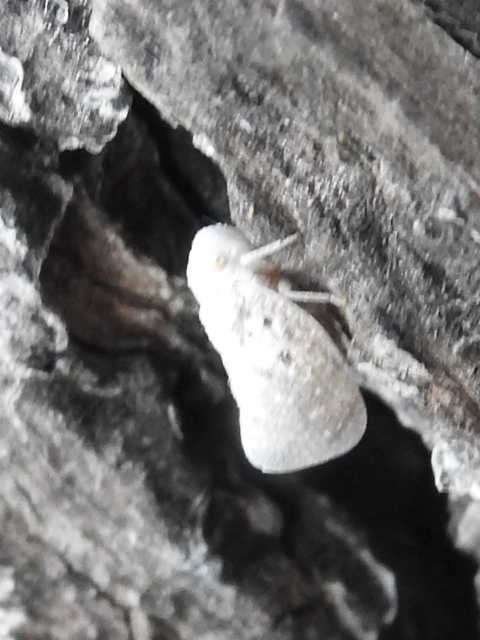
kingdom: Animalia
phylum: Arthropoda
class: Insecta
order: Hemiptera
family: Flatidae
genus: Metcalfa
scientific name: Metcalfa pruinosa
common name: Citrus flatid planthopper
